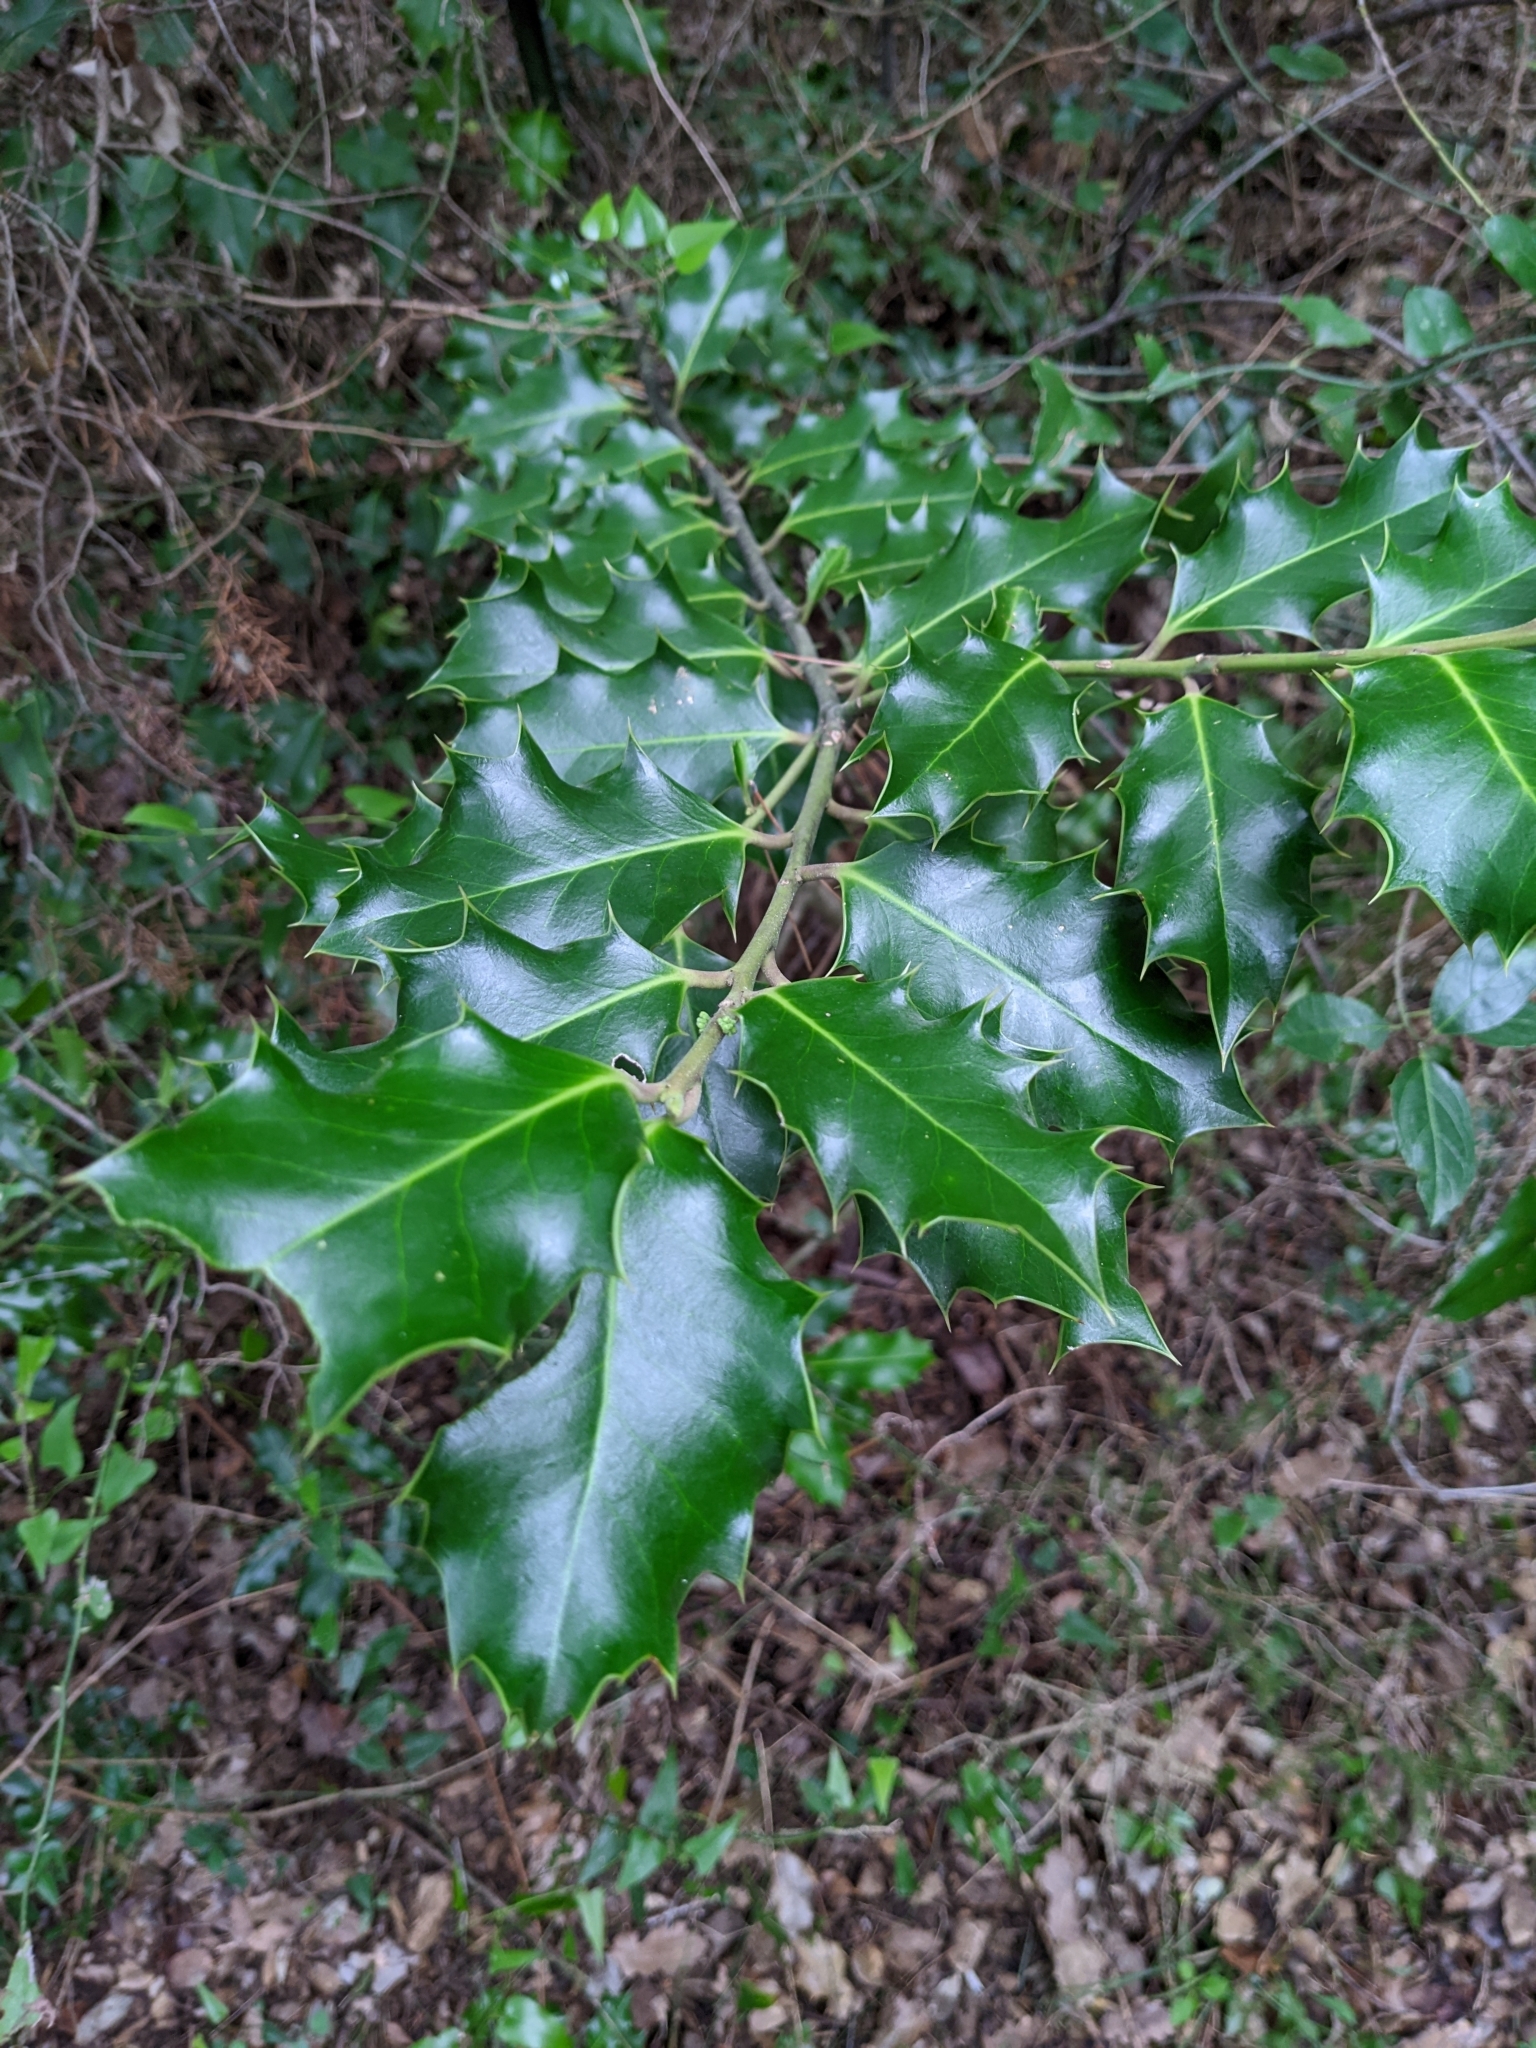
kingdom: Plantae
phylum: Tracheophyta
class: Magnoliopsida
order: Aquifoliales
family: Aquifoliaceae
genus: Ilex
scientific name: Ilex aquifolium
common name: English holly
